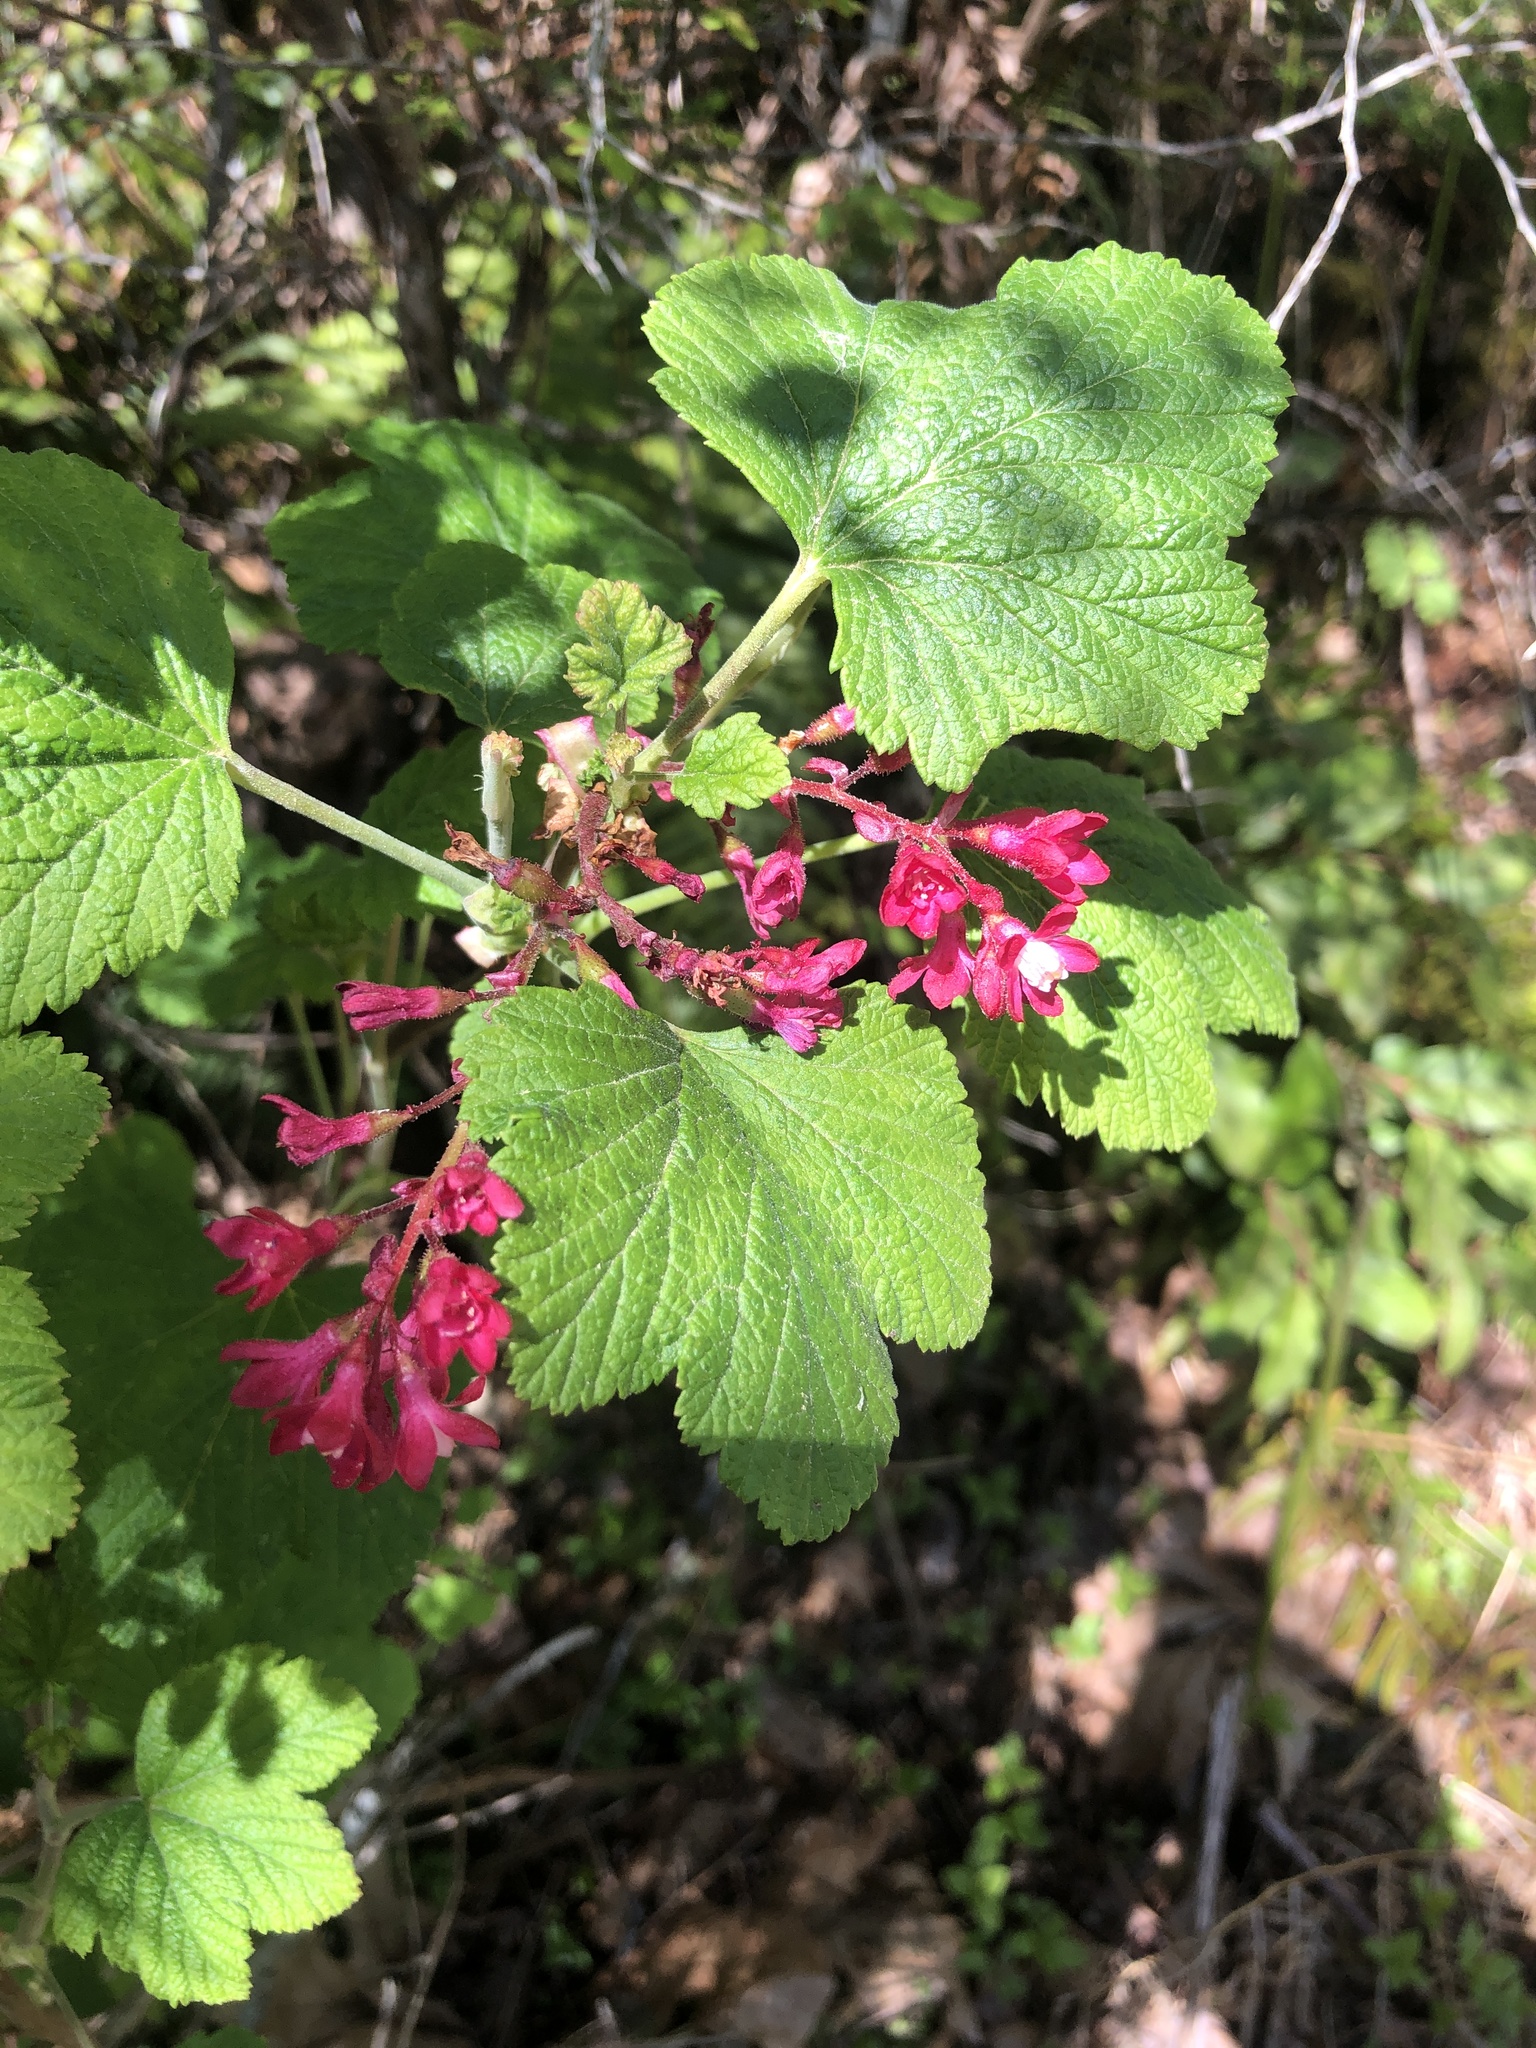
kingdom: Plantae
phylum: Tracheophyta
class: Magnoliopsida
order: Saxifragales
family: Grossulariaceae
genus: Ribes
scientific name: Ribes sanguineum
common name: Flowering currant
